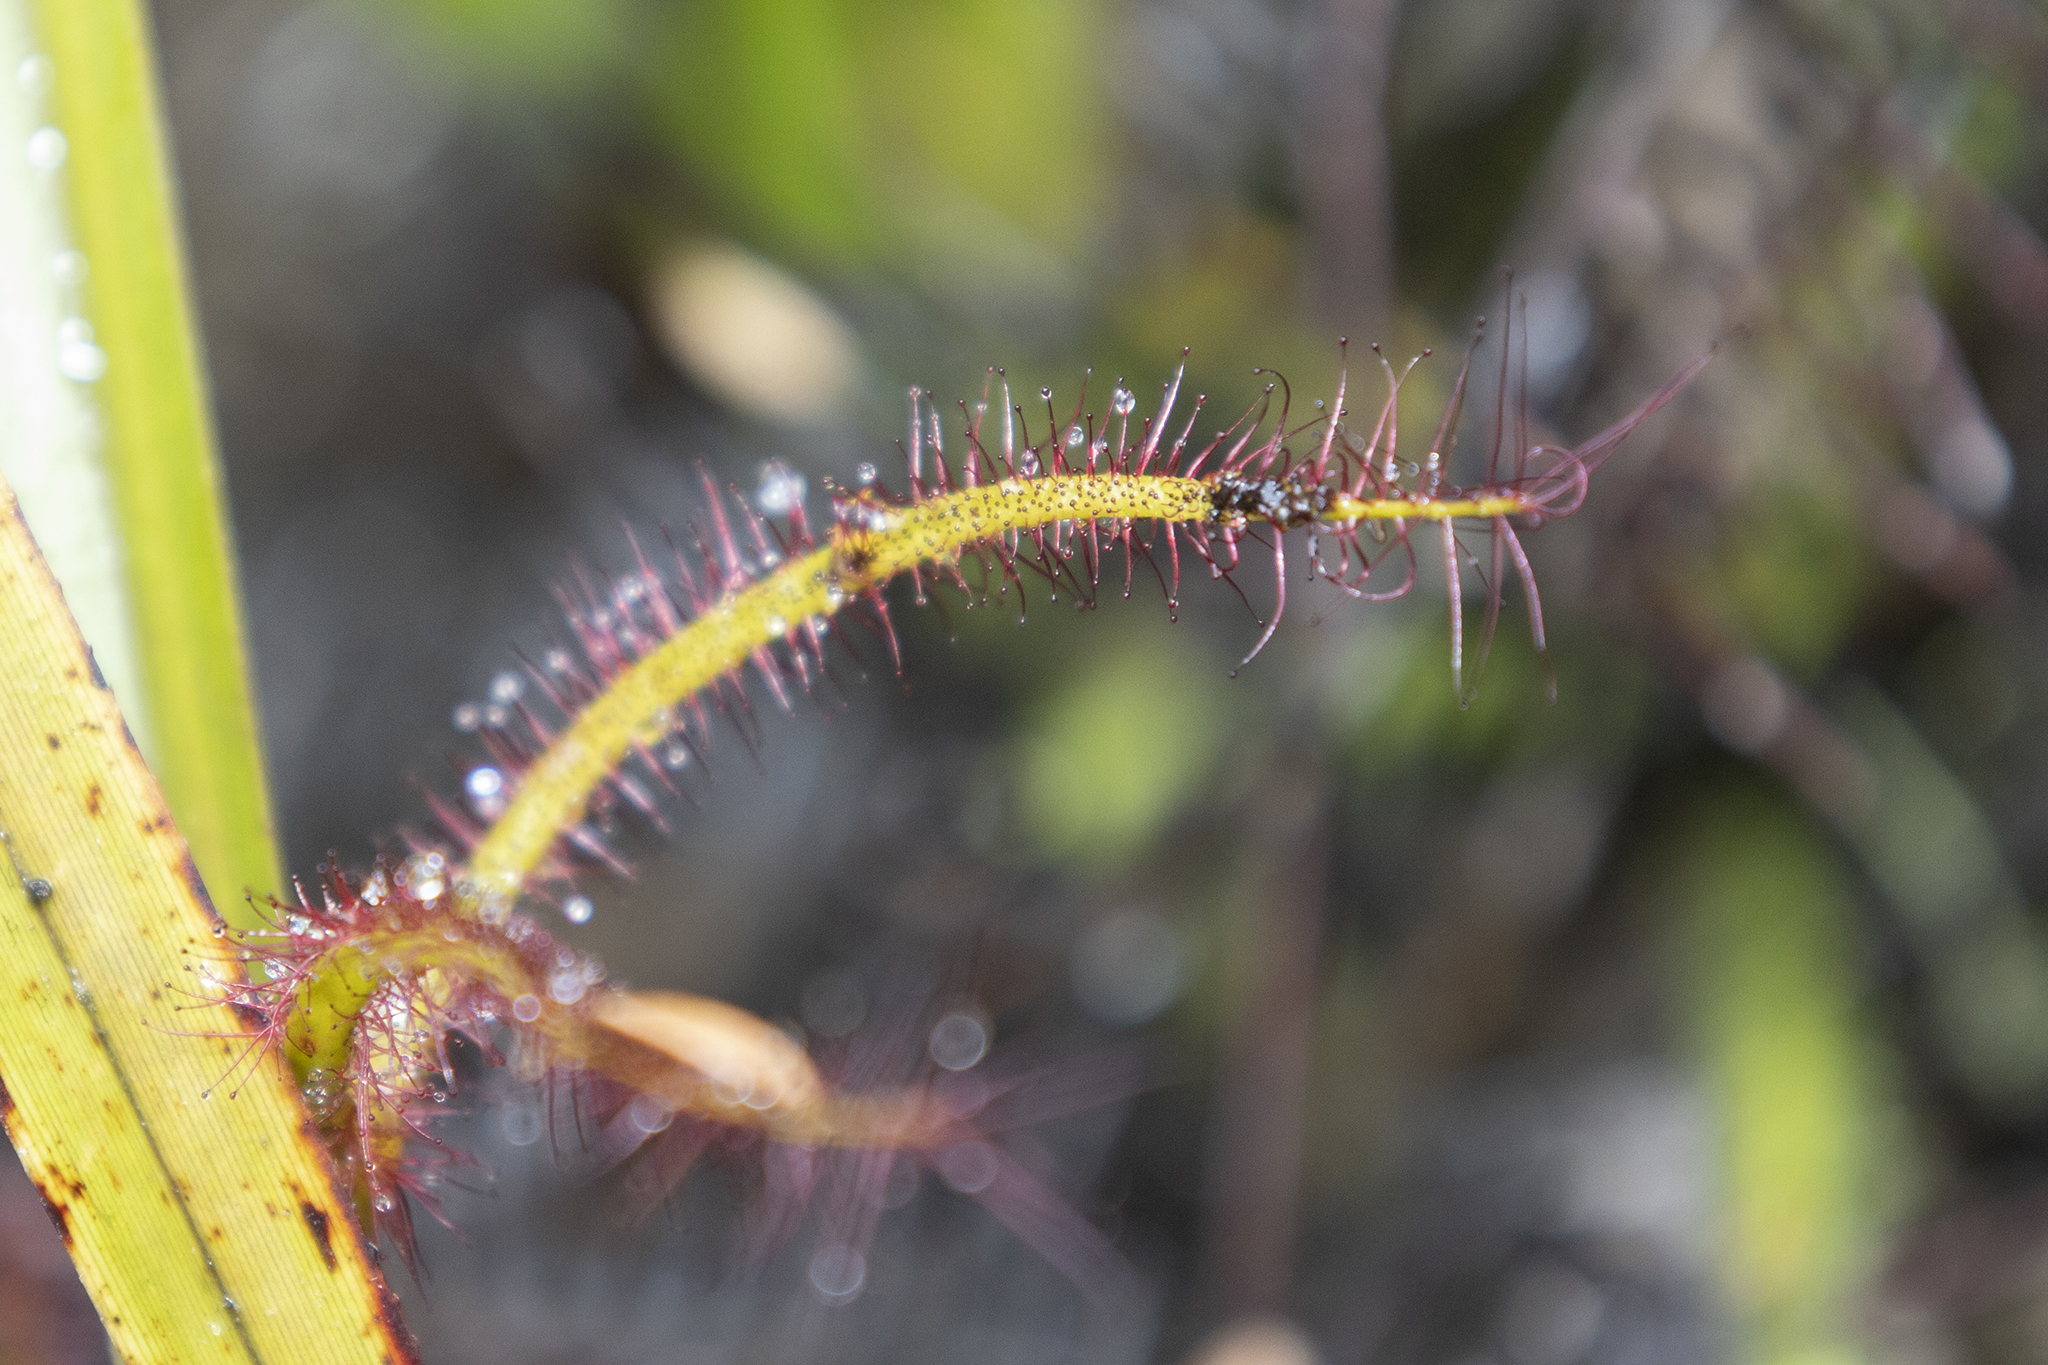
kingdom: Plantae
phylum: Tracheophyta
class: Magnoliopsida
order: Caryophyllales
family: Droseraceae
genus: Drosera
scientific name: Drosera binata
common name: Forked sundew
